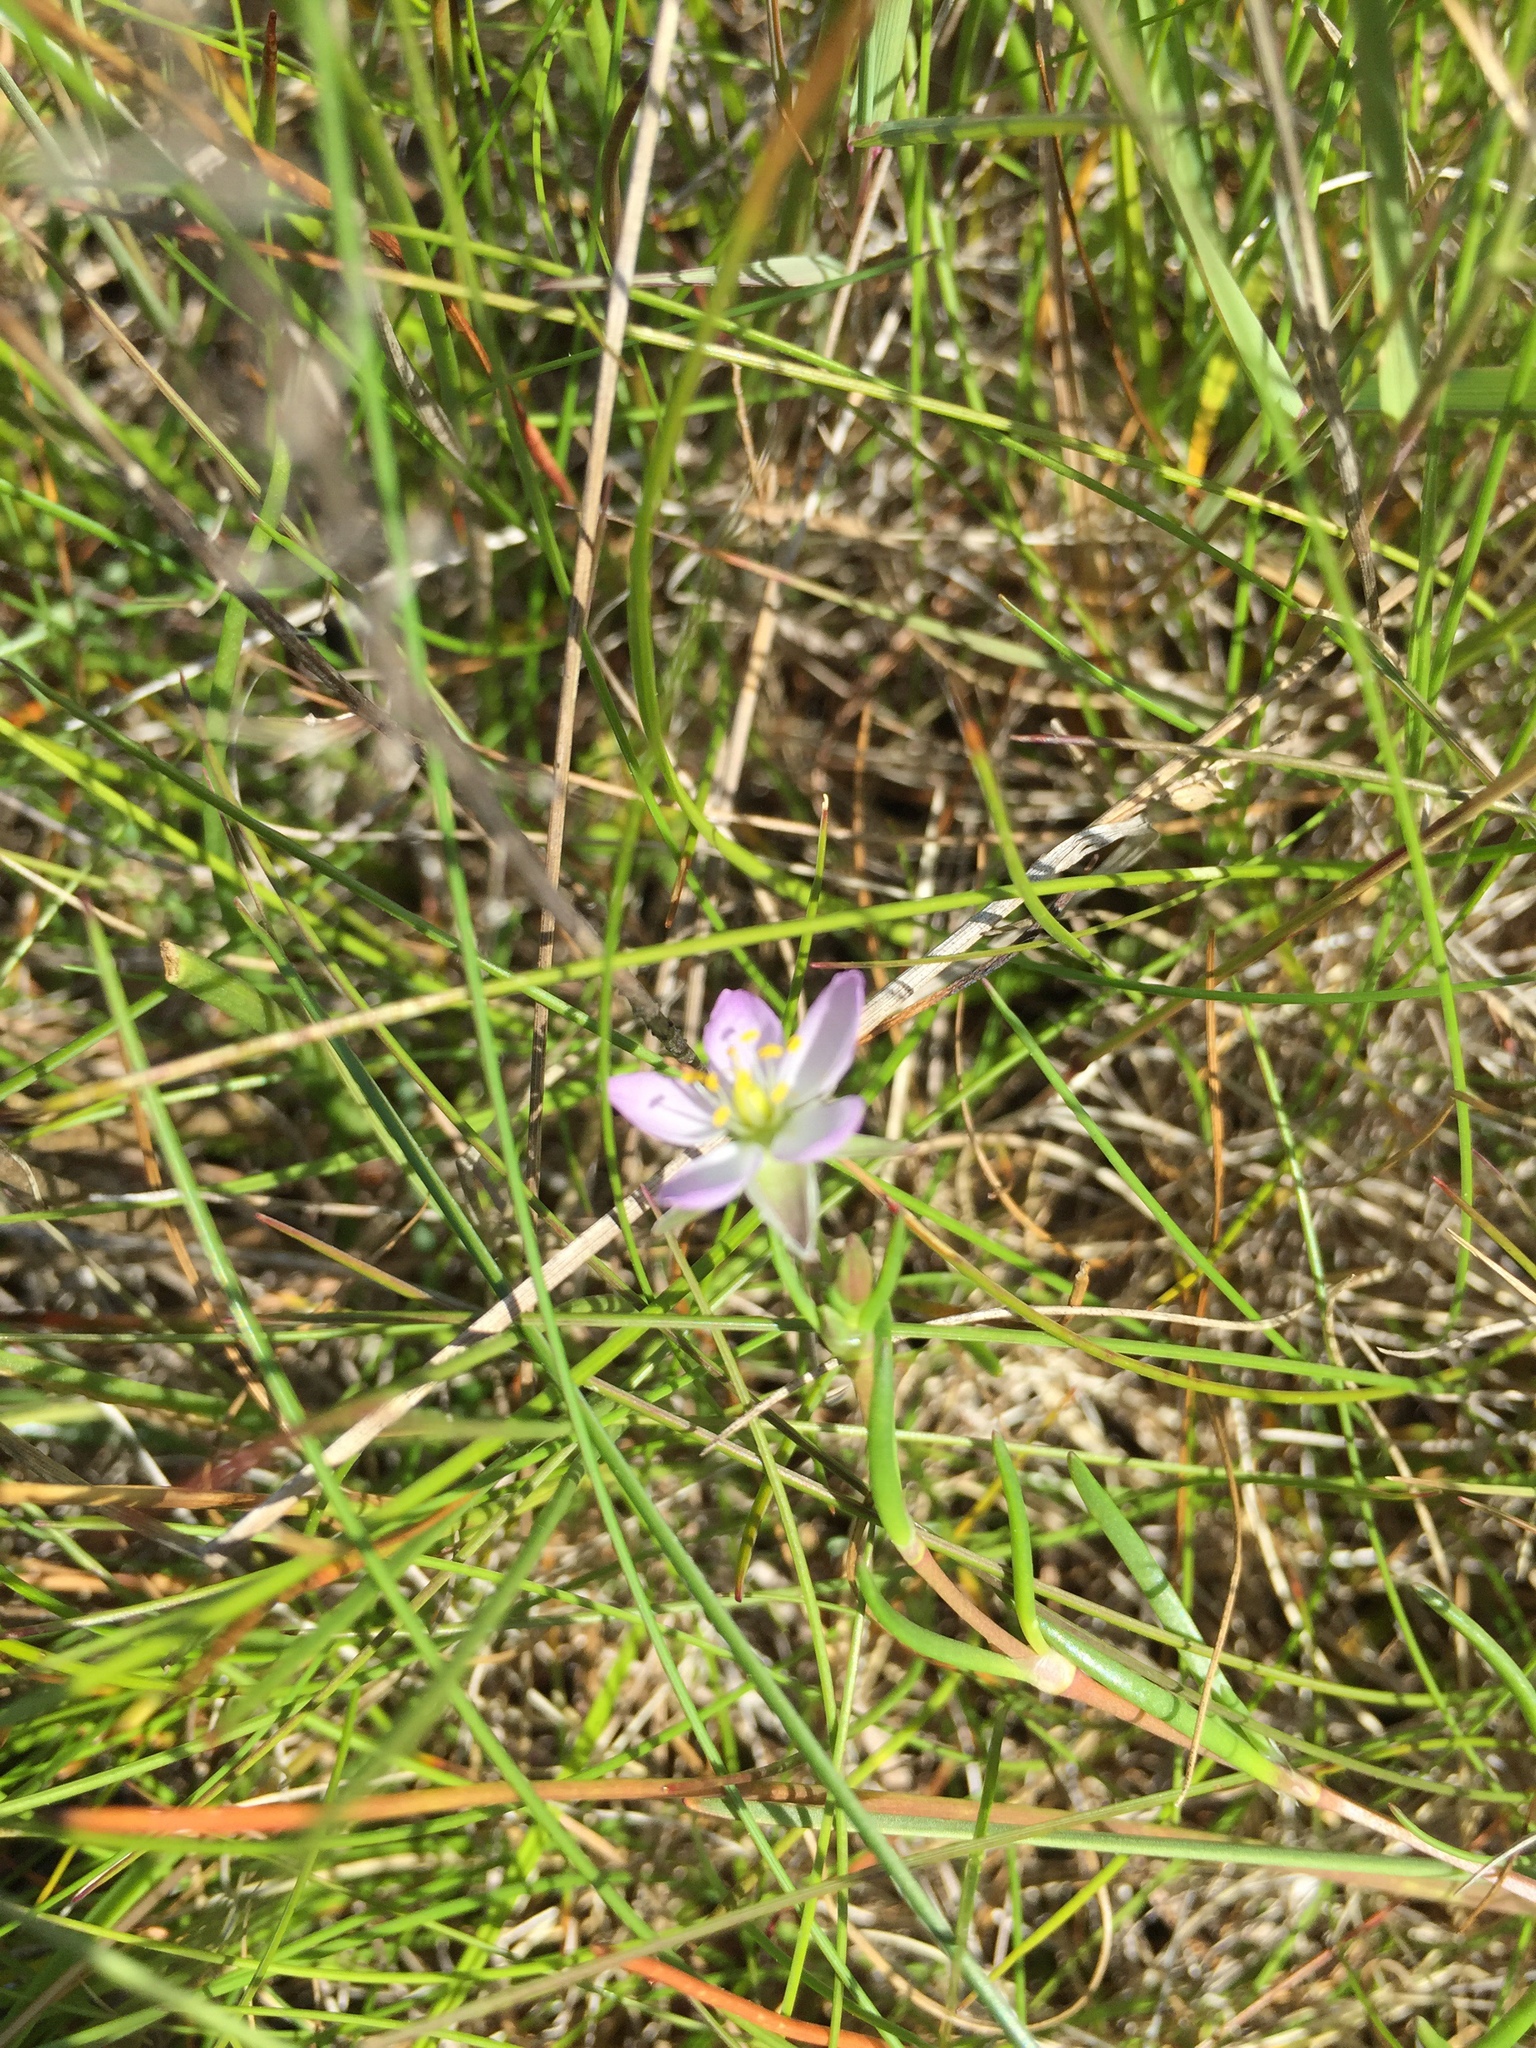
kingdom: Plantae
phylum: Tracheophyta
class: Magnoliopsida
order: Caryophyllales
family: Caryophyllaceae
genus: Spergularia
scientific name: Spergularia rubra
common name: Red sand-spurrey
